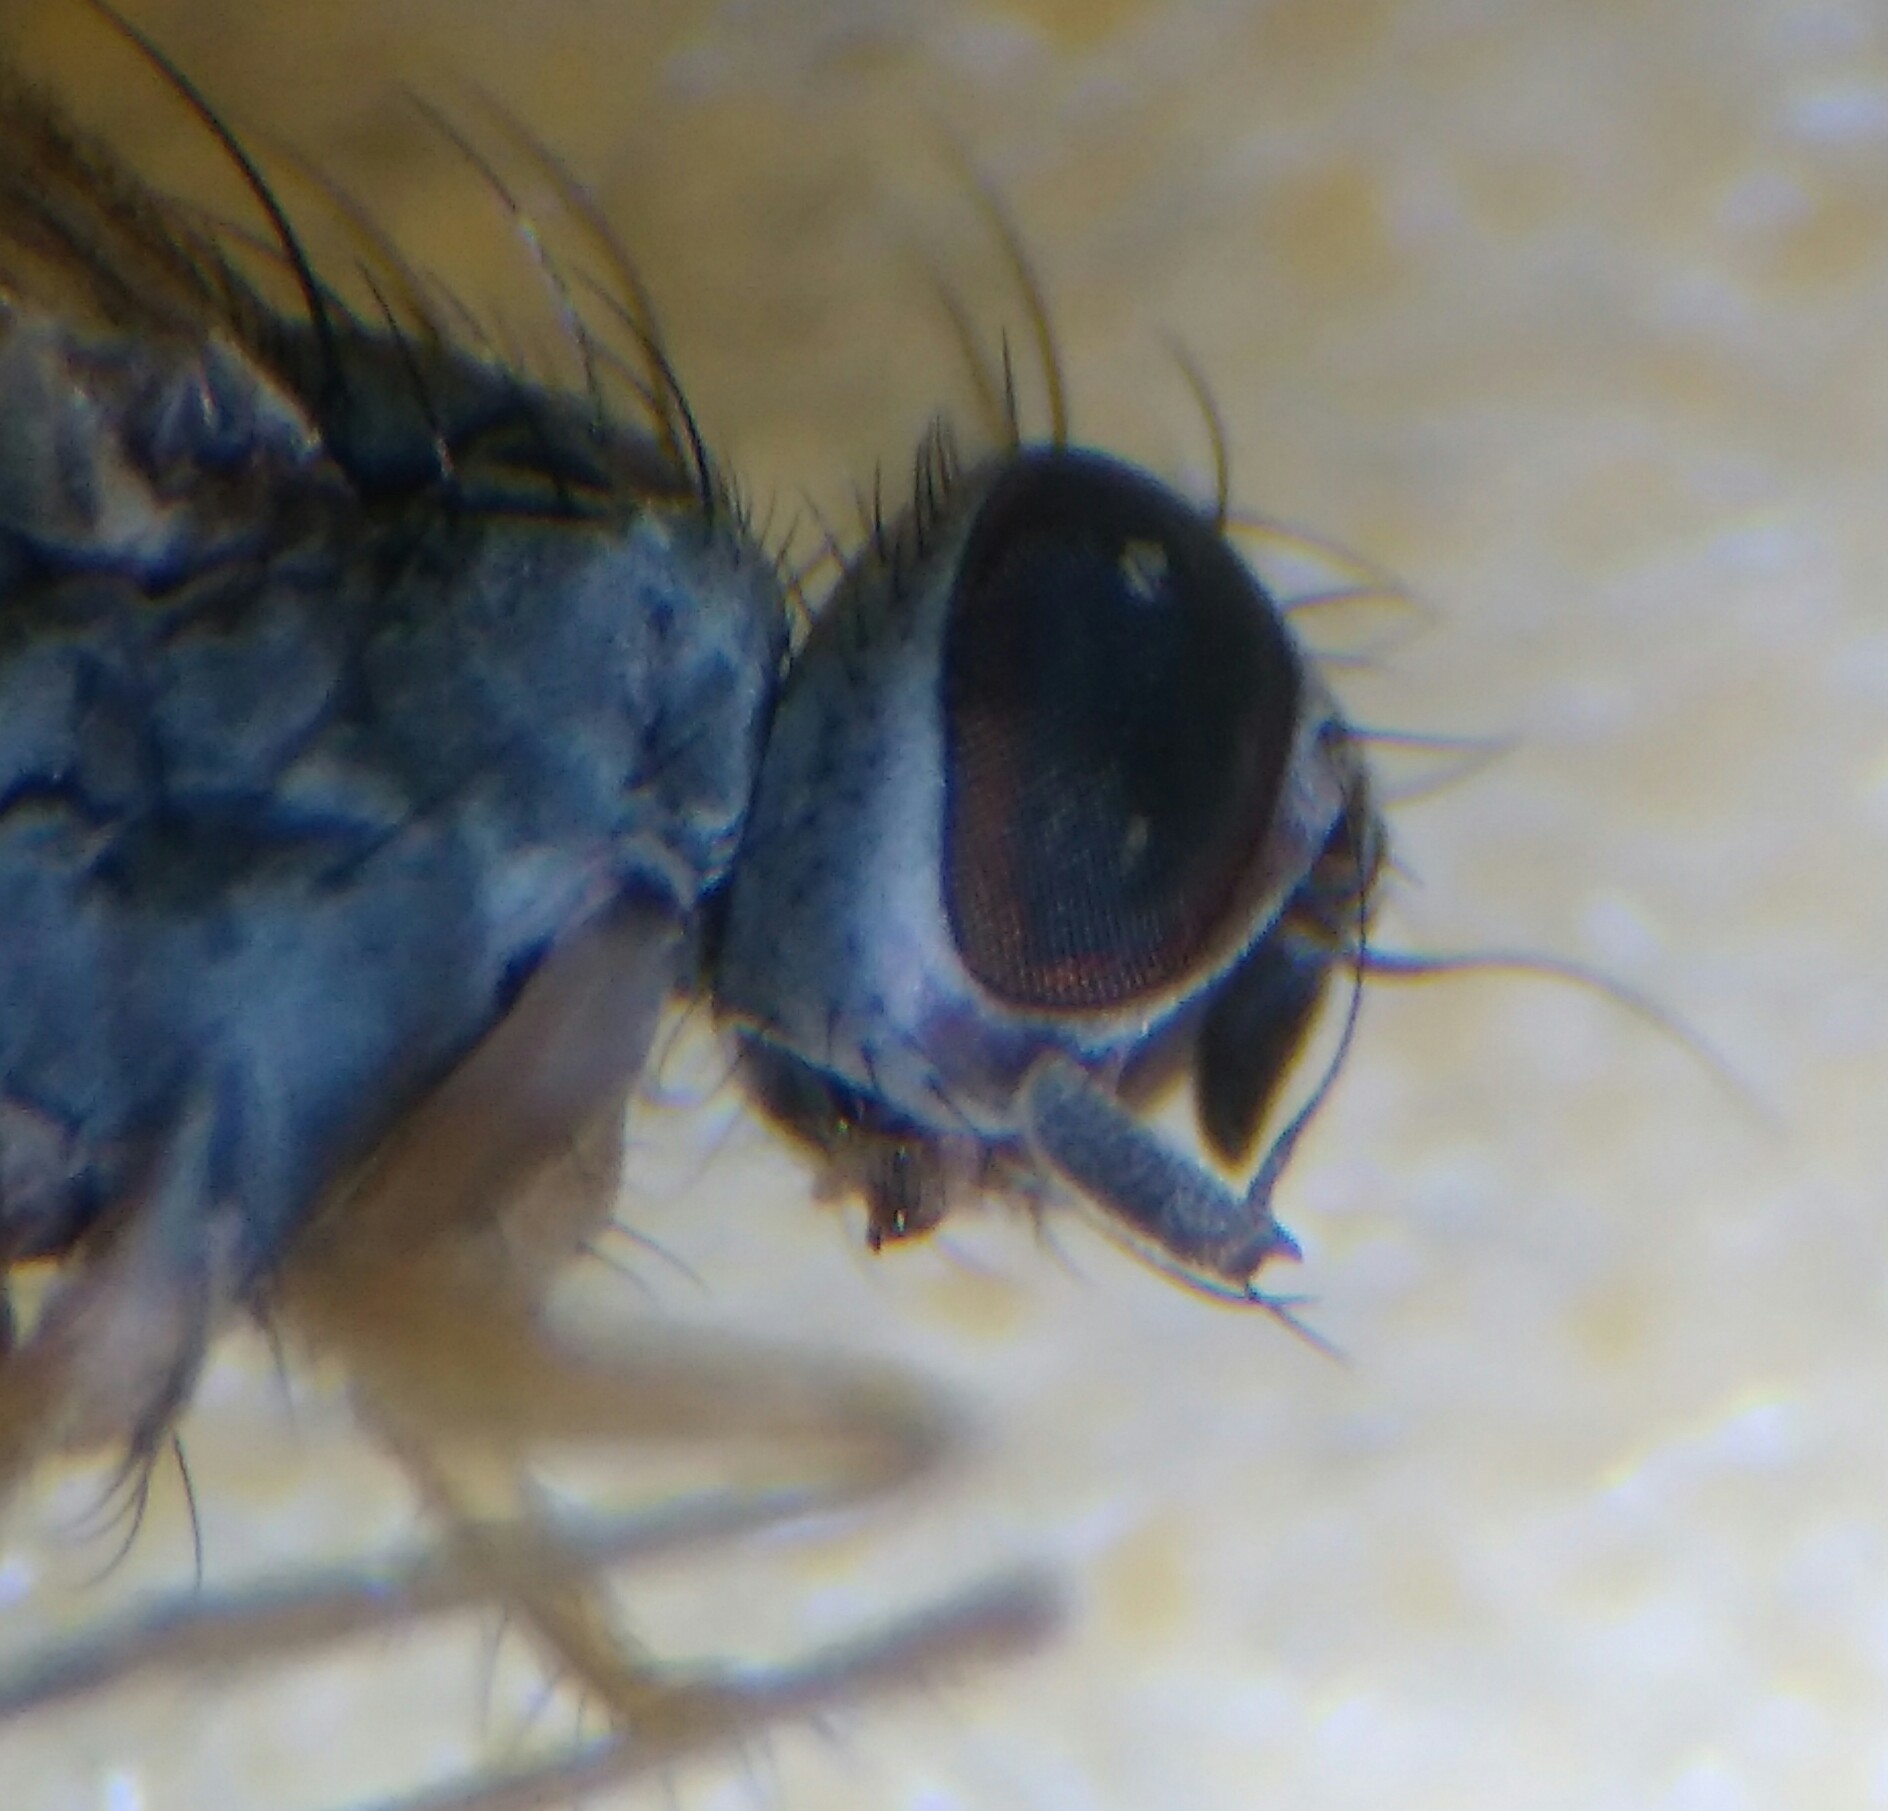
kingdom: Animalia
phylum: Arthropoda
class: Insecta
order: Diptera
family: Muscidae
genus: Coenosia
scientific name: Coenosia testacea
